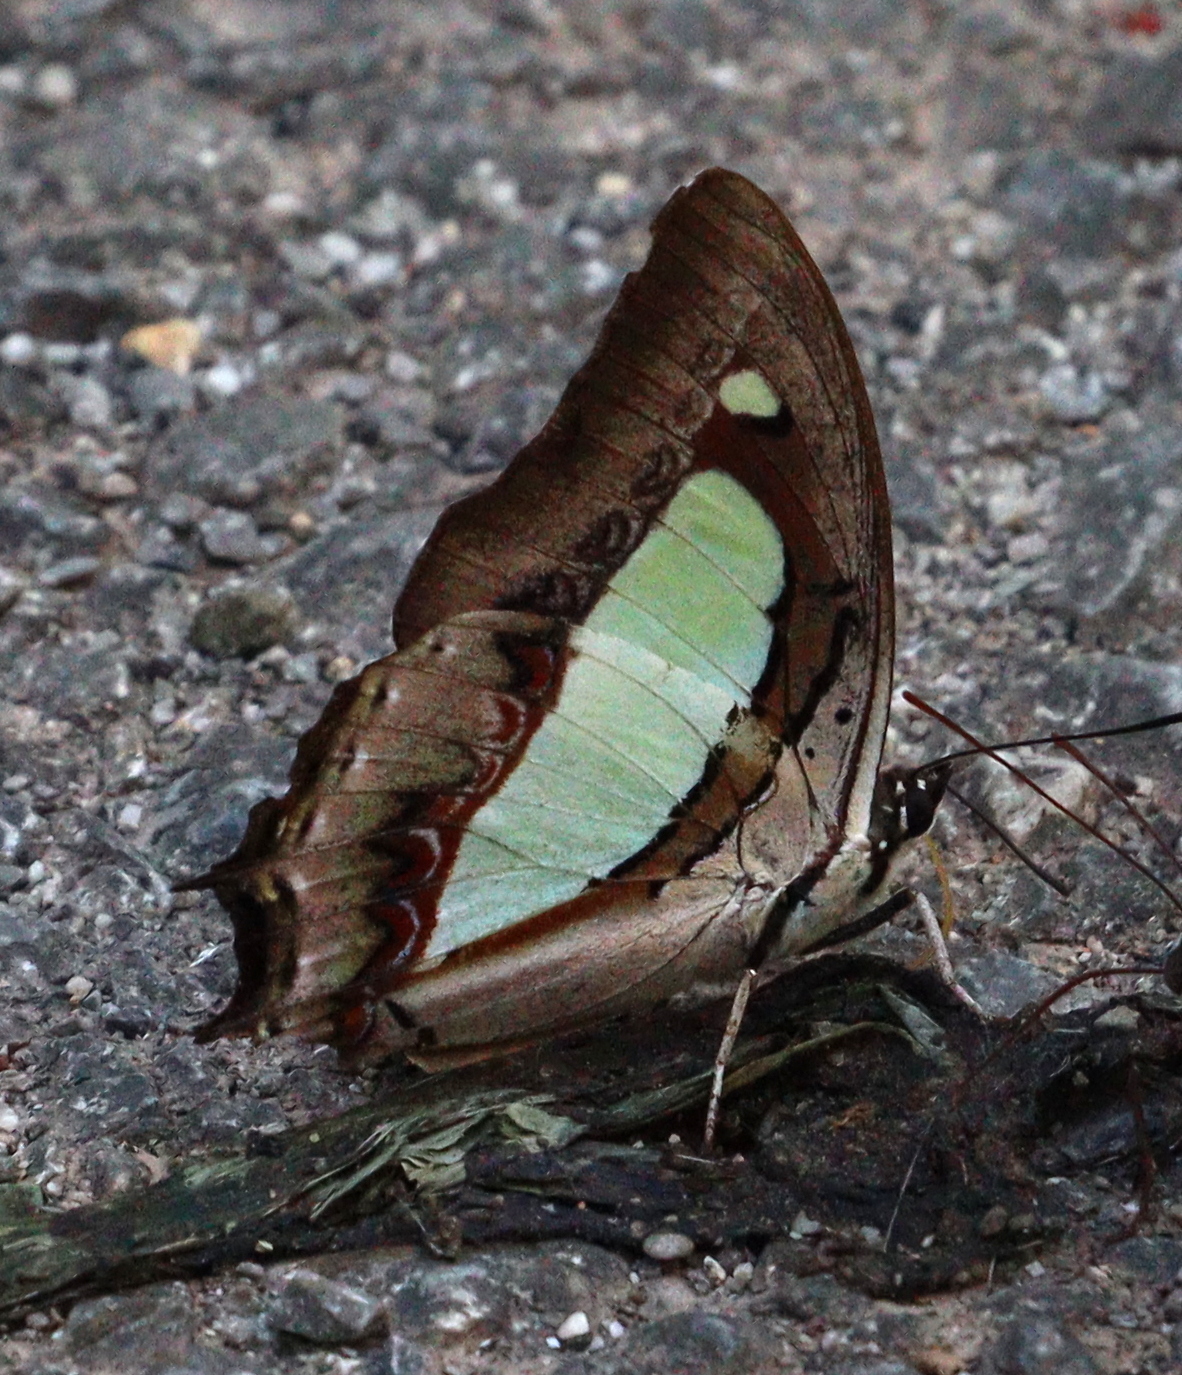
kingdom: Animalia
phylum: Arthropoda
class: Insecta
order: Lepidoptera
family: Nymphalidae
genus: Polyura
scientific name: Polyura athamas
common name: Common nawab
